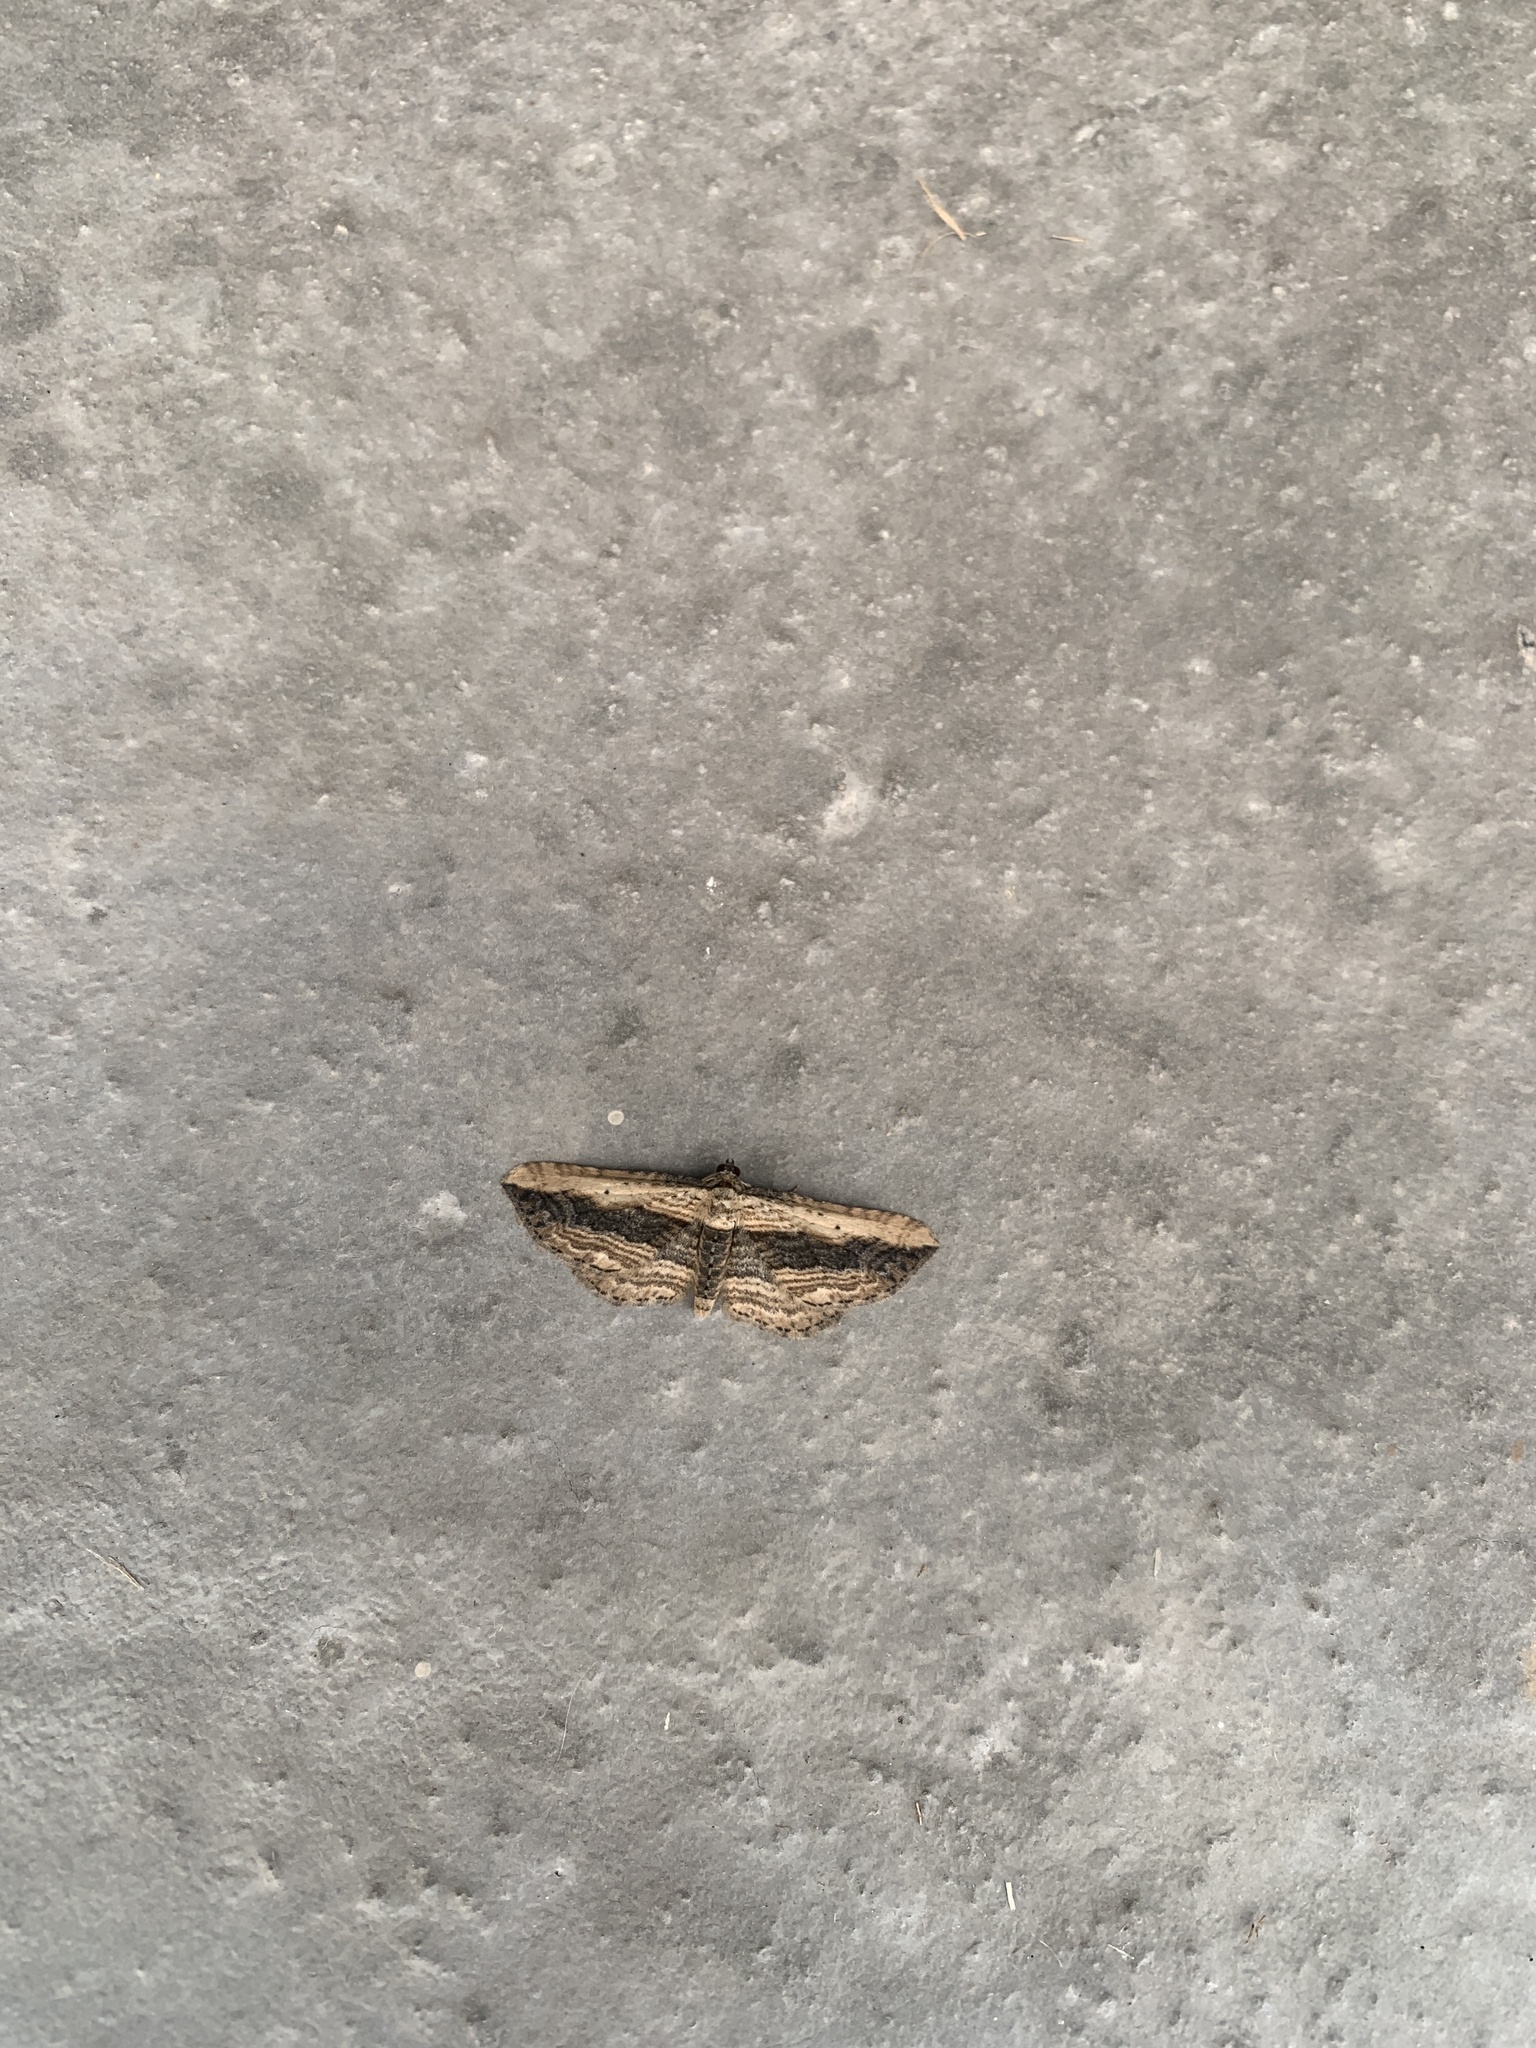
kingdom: Animalia
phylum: Arthropoda
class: Insecta
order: Lepidoptera
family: Geometridae
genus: Horisme
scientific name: Horisme vitalbata
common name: Small waved umber
